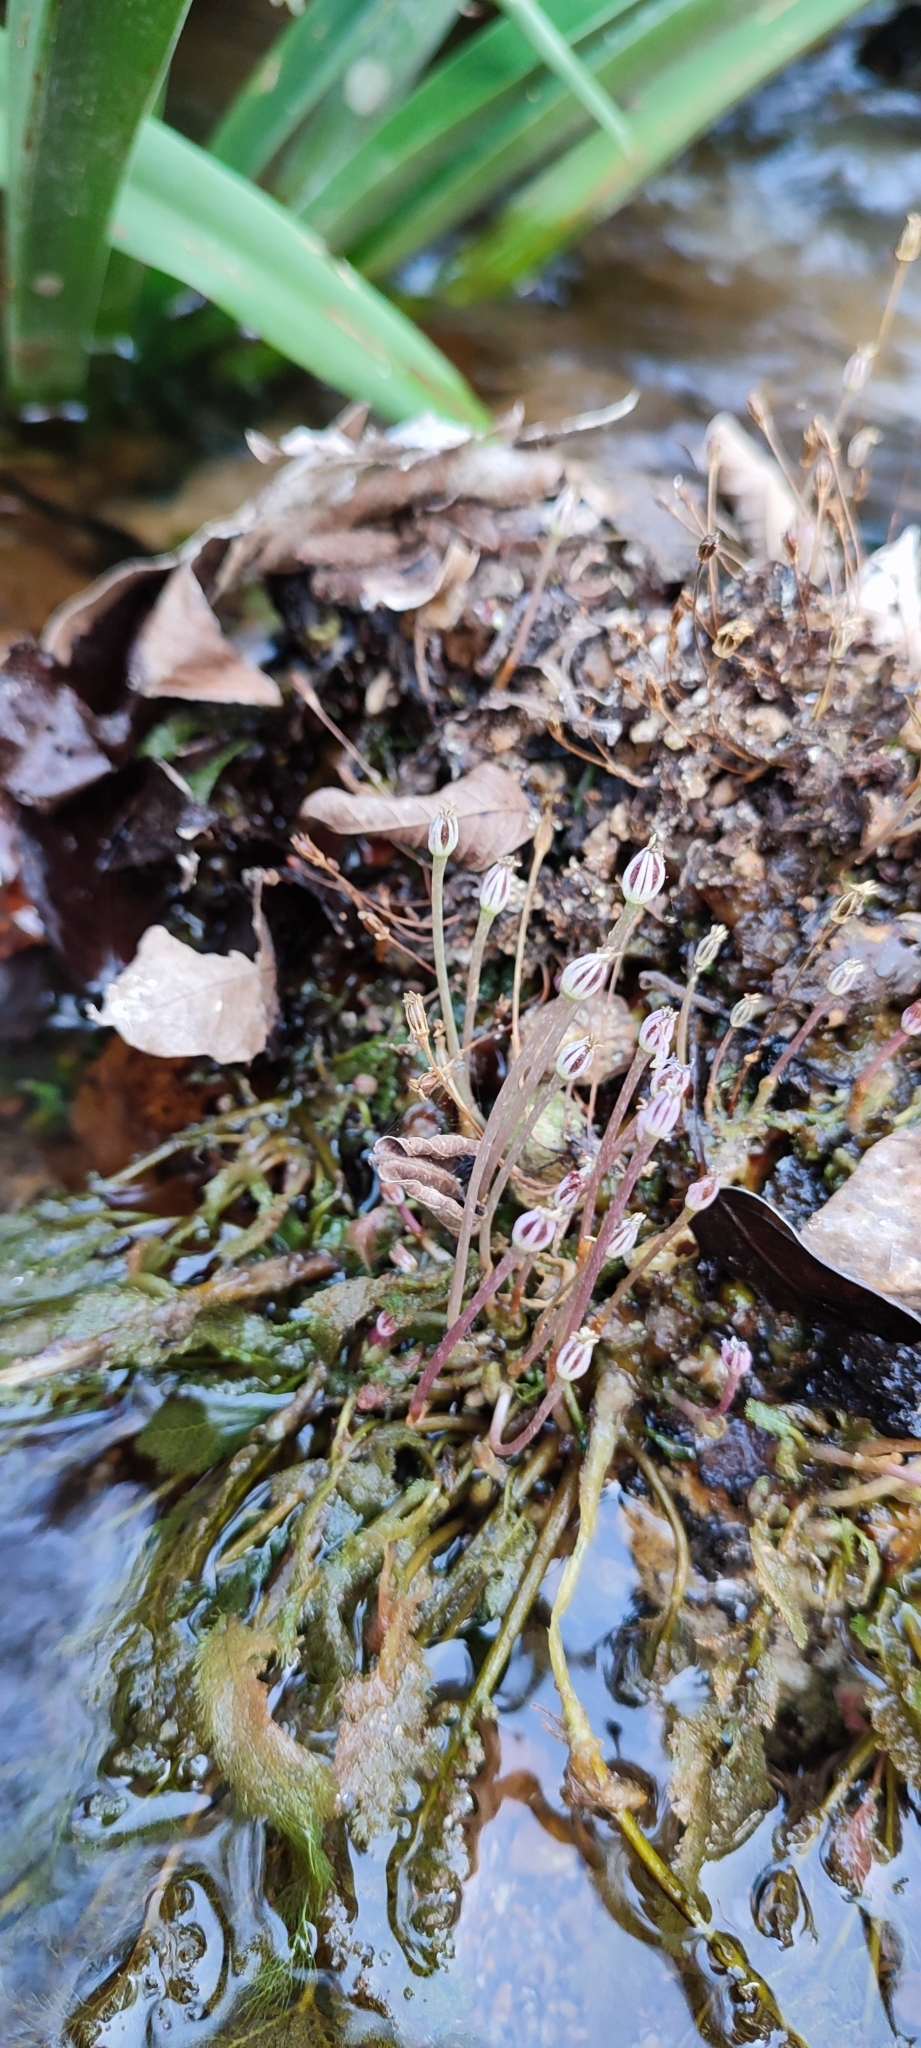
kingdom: Plantae
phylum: Tracheophyta
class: Magnoliopsida
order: Malpighiales
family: Podostemaceae
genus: Marathrum
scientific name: Marathrum foeniculaceum
